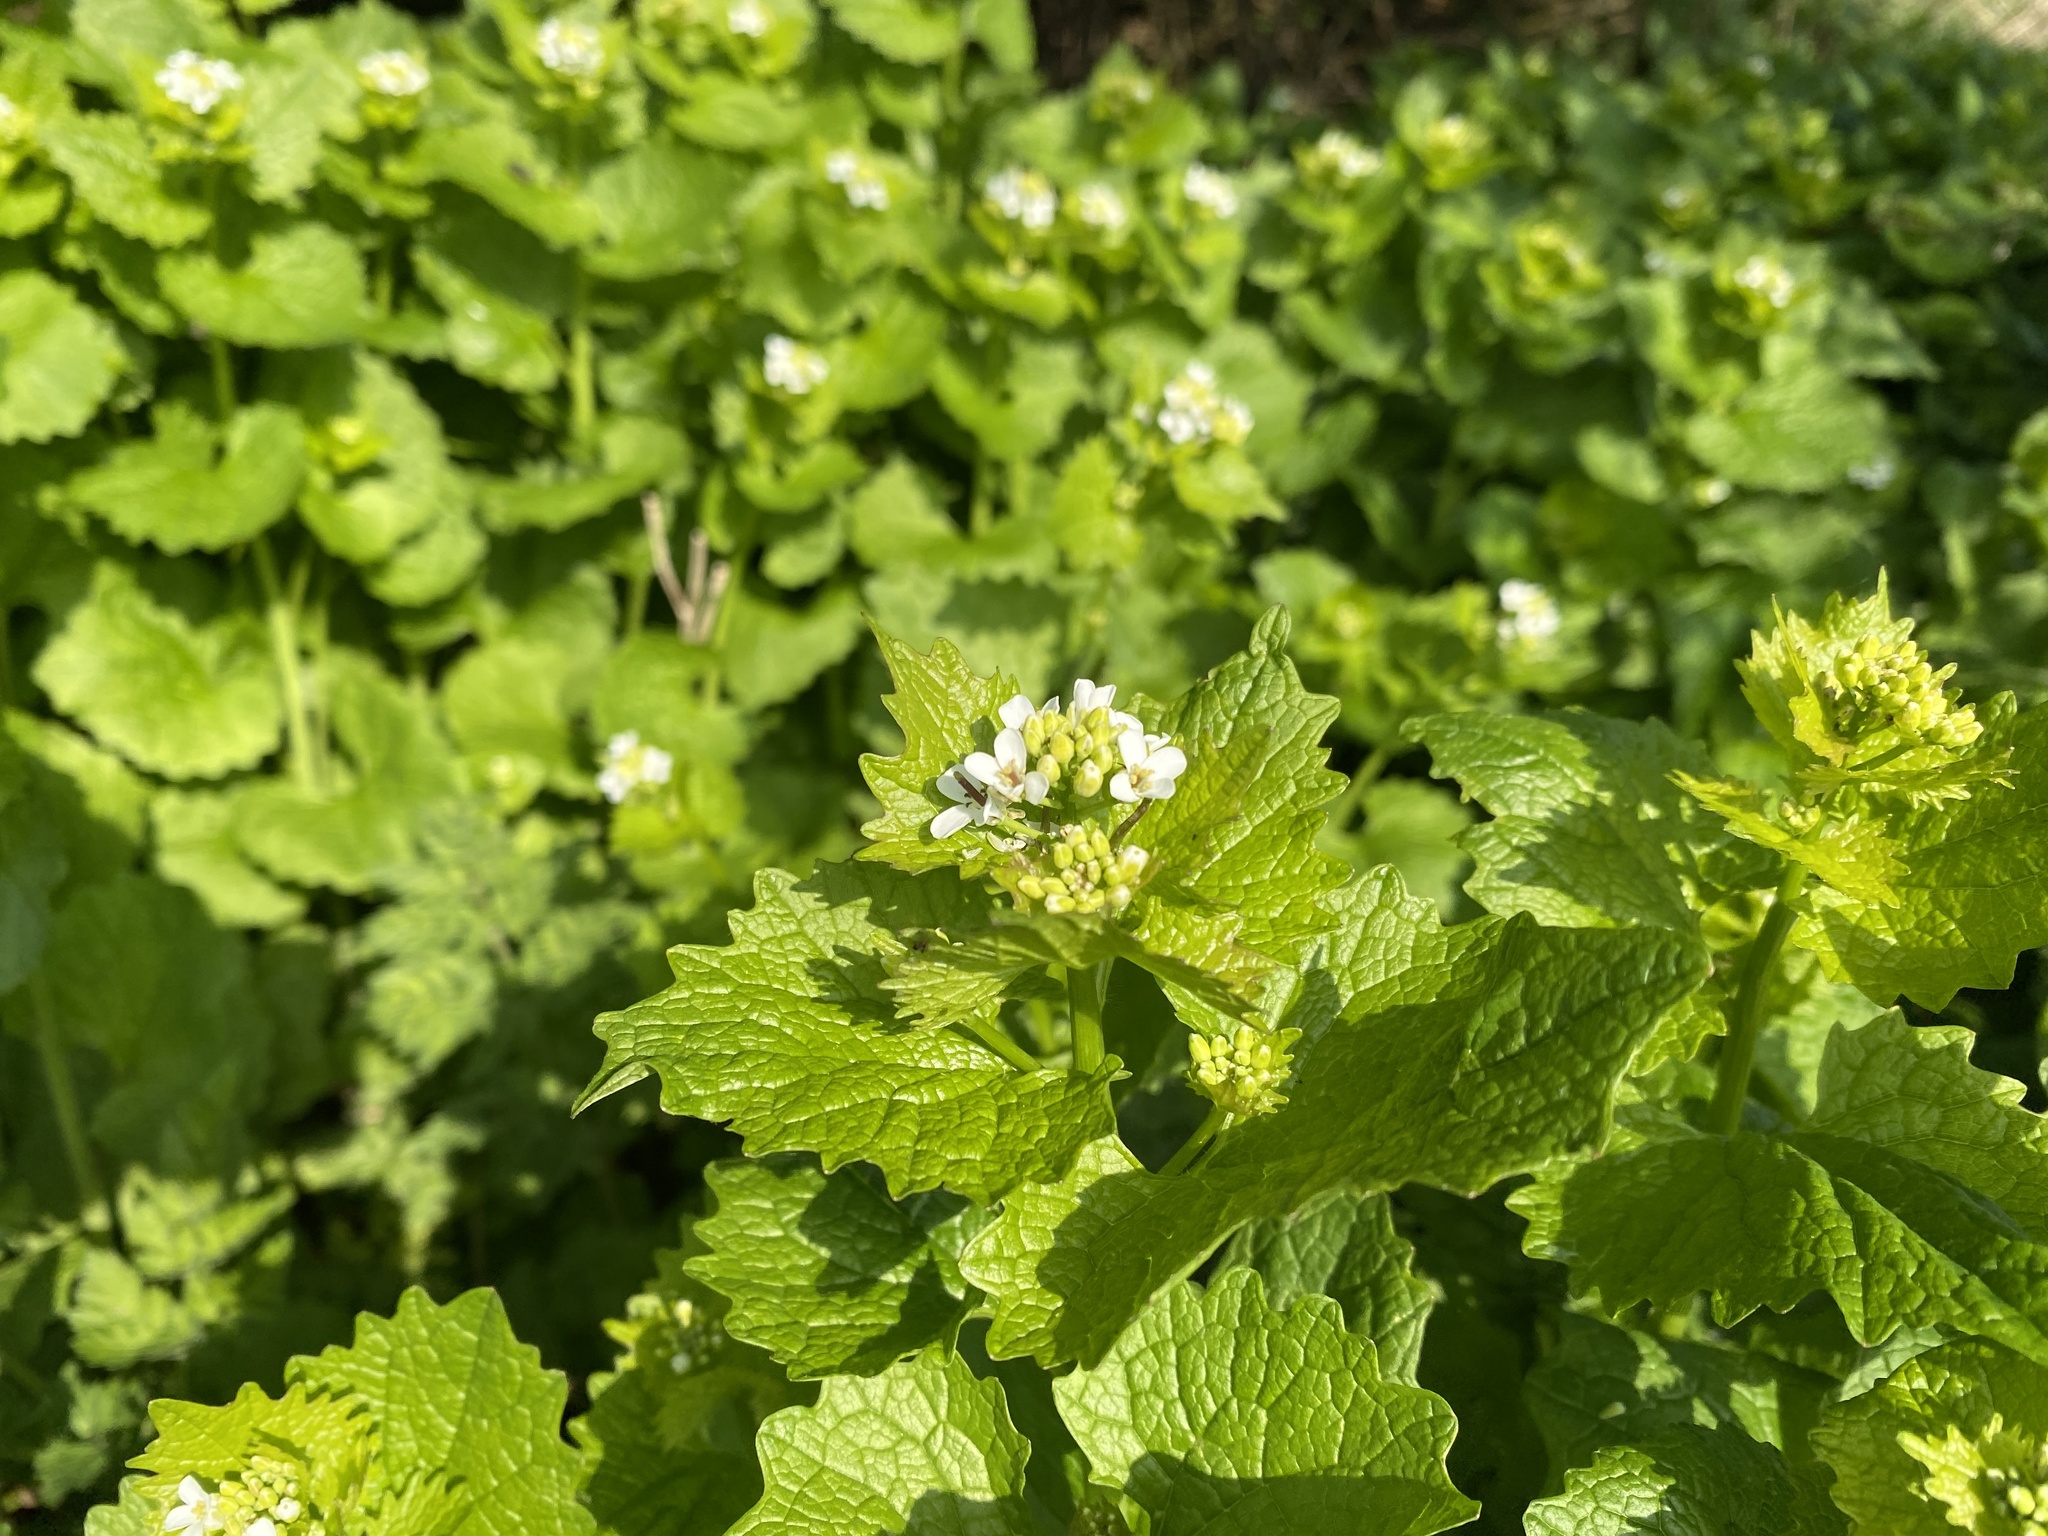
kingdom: Plantae
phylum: Tracheophyta
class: Magnoliopsida
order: Brassicales
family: Brassicaceae
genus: Alliaria
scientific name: Alliaria petiolata
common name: Garlic mustard
